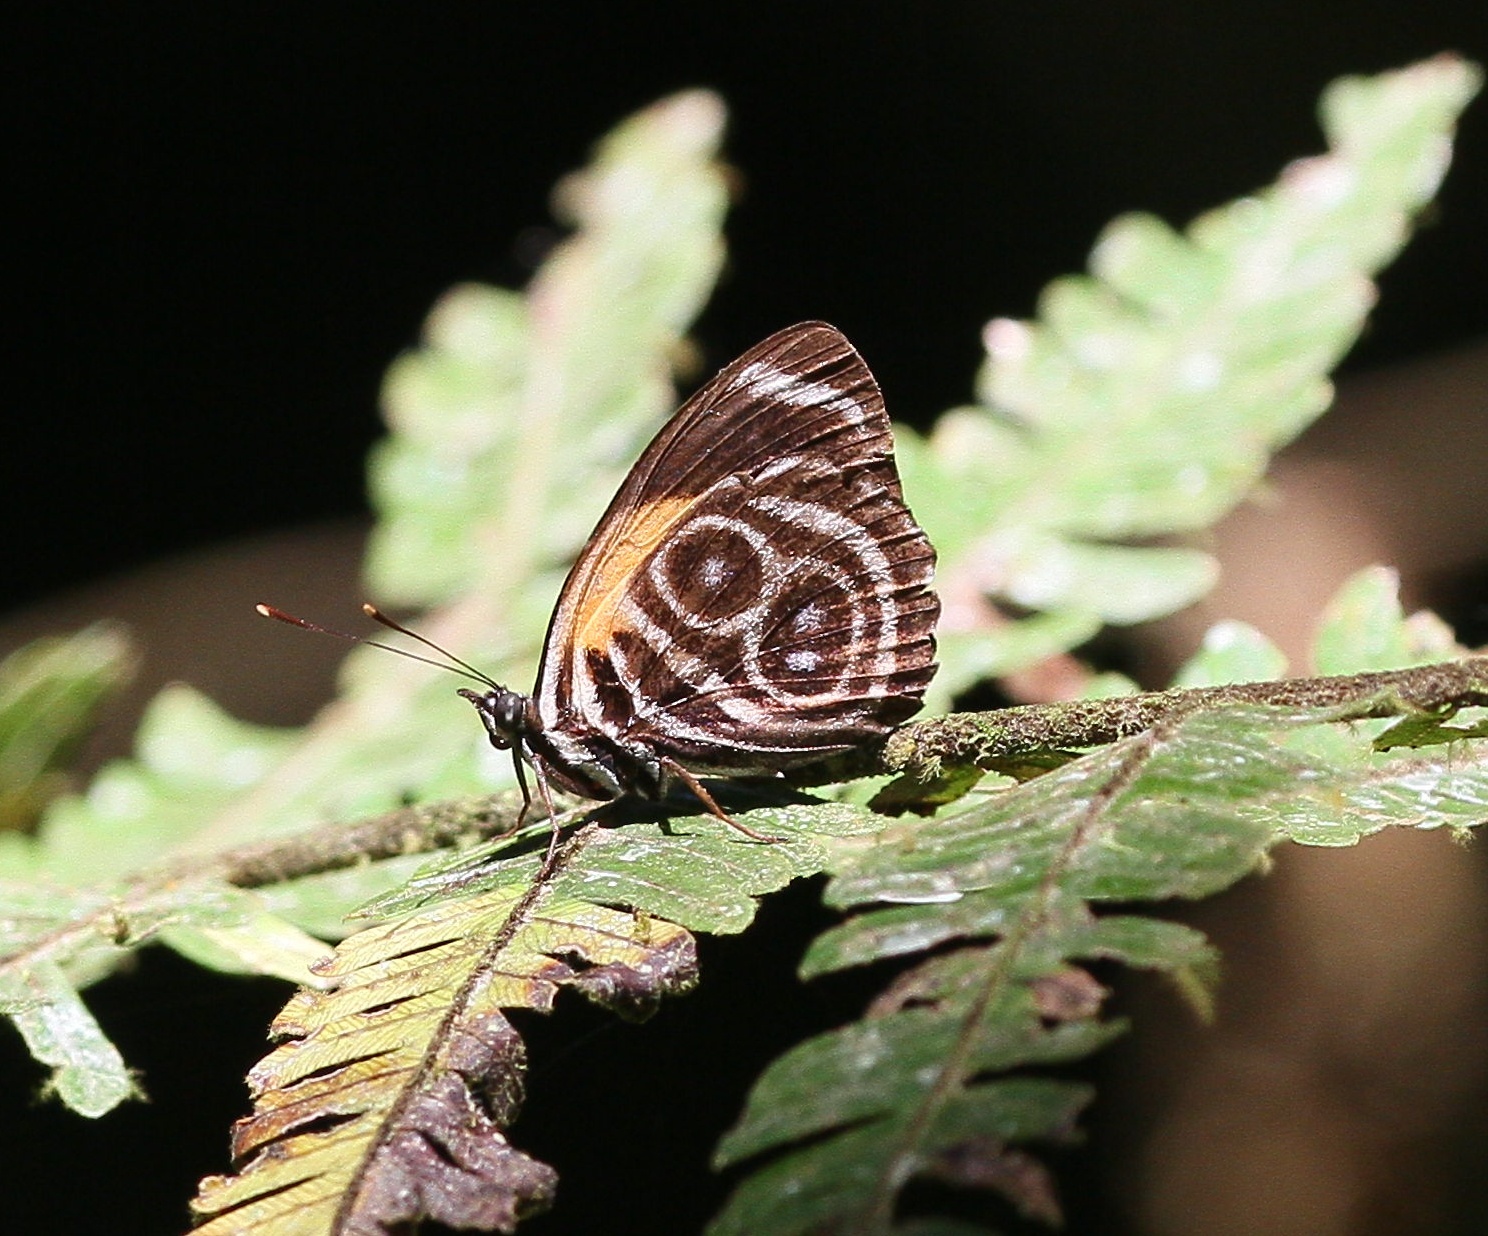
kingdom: Animalia
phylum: Arthropoda
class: Insecta
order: Lepidoptera
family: Nymphalidae
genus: Catagramma
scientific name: Catagramma eunomia
